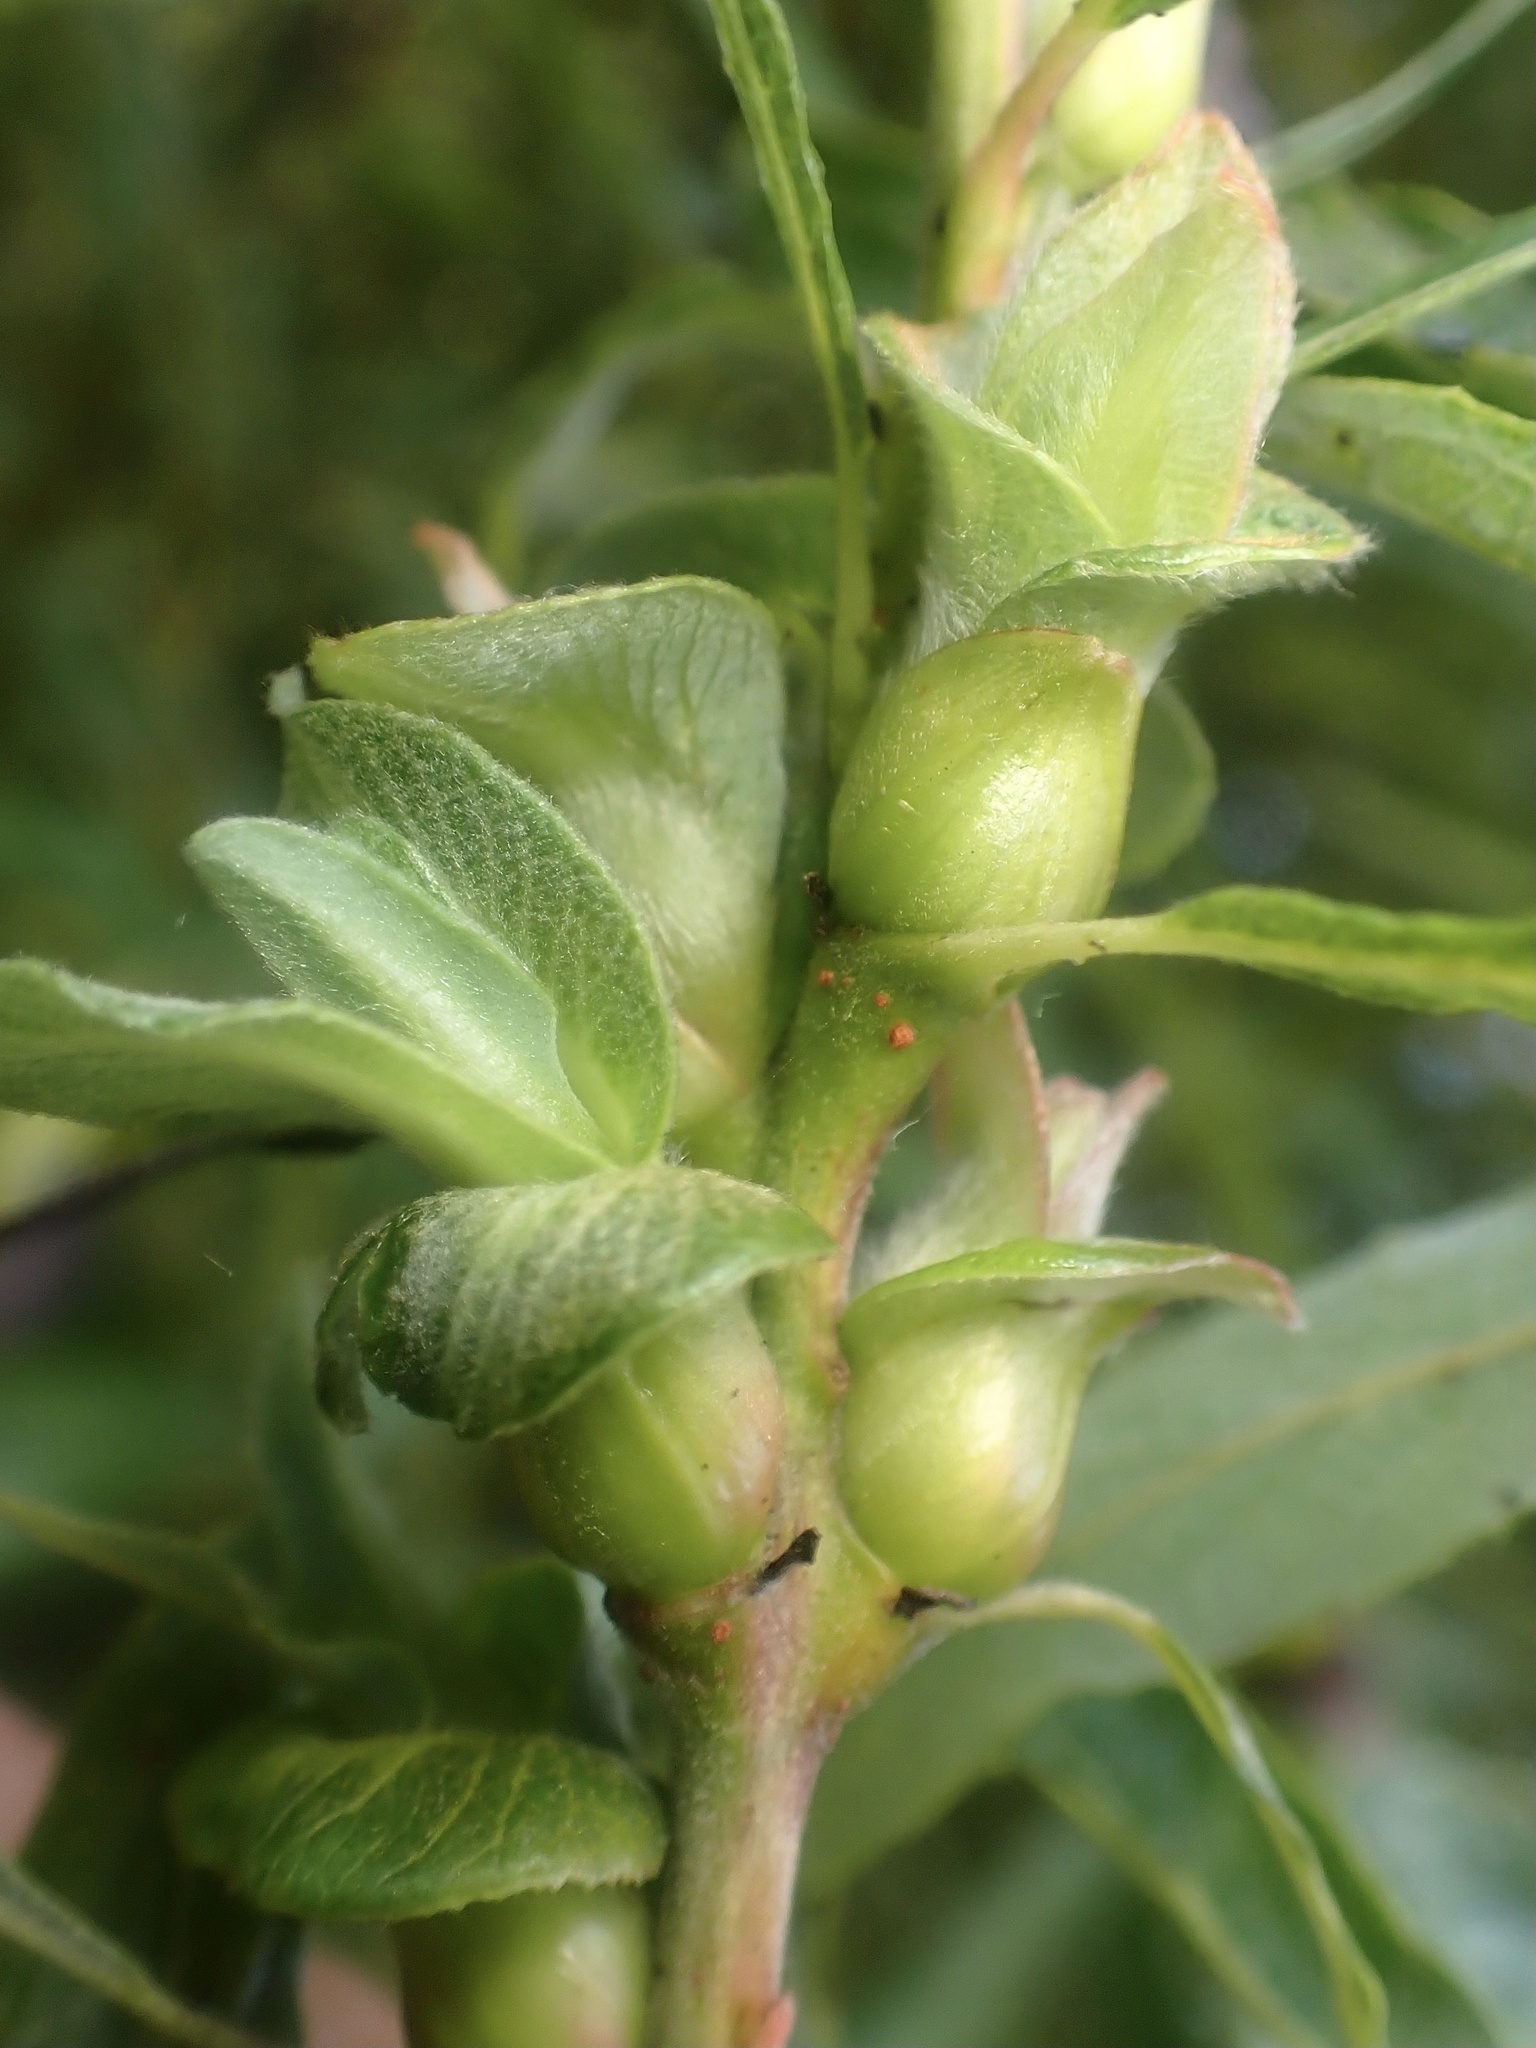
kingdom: Animalia
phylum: Arthropoda
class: Insecta
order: Diptera
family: Cecidomyiidae
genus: Rabdophaga
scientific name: Rabdophaga salicisbrassicoides
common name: Willow cabbagegall midge
